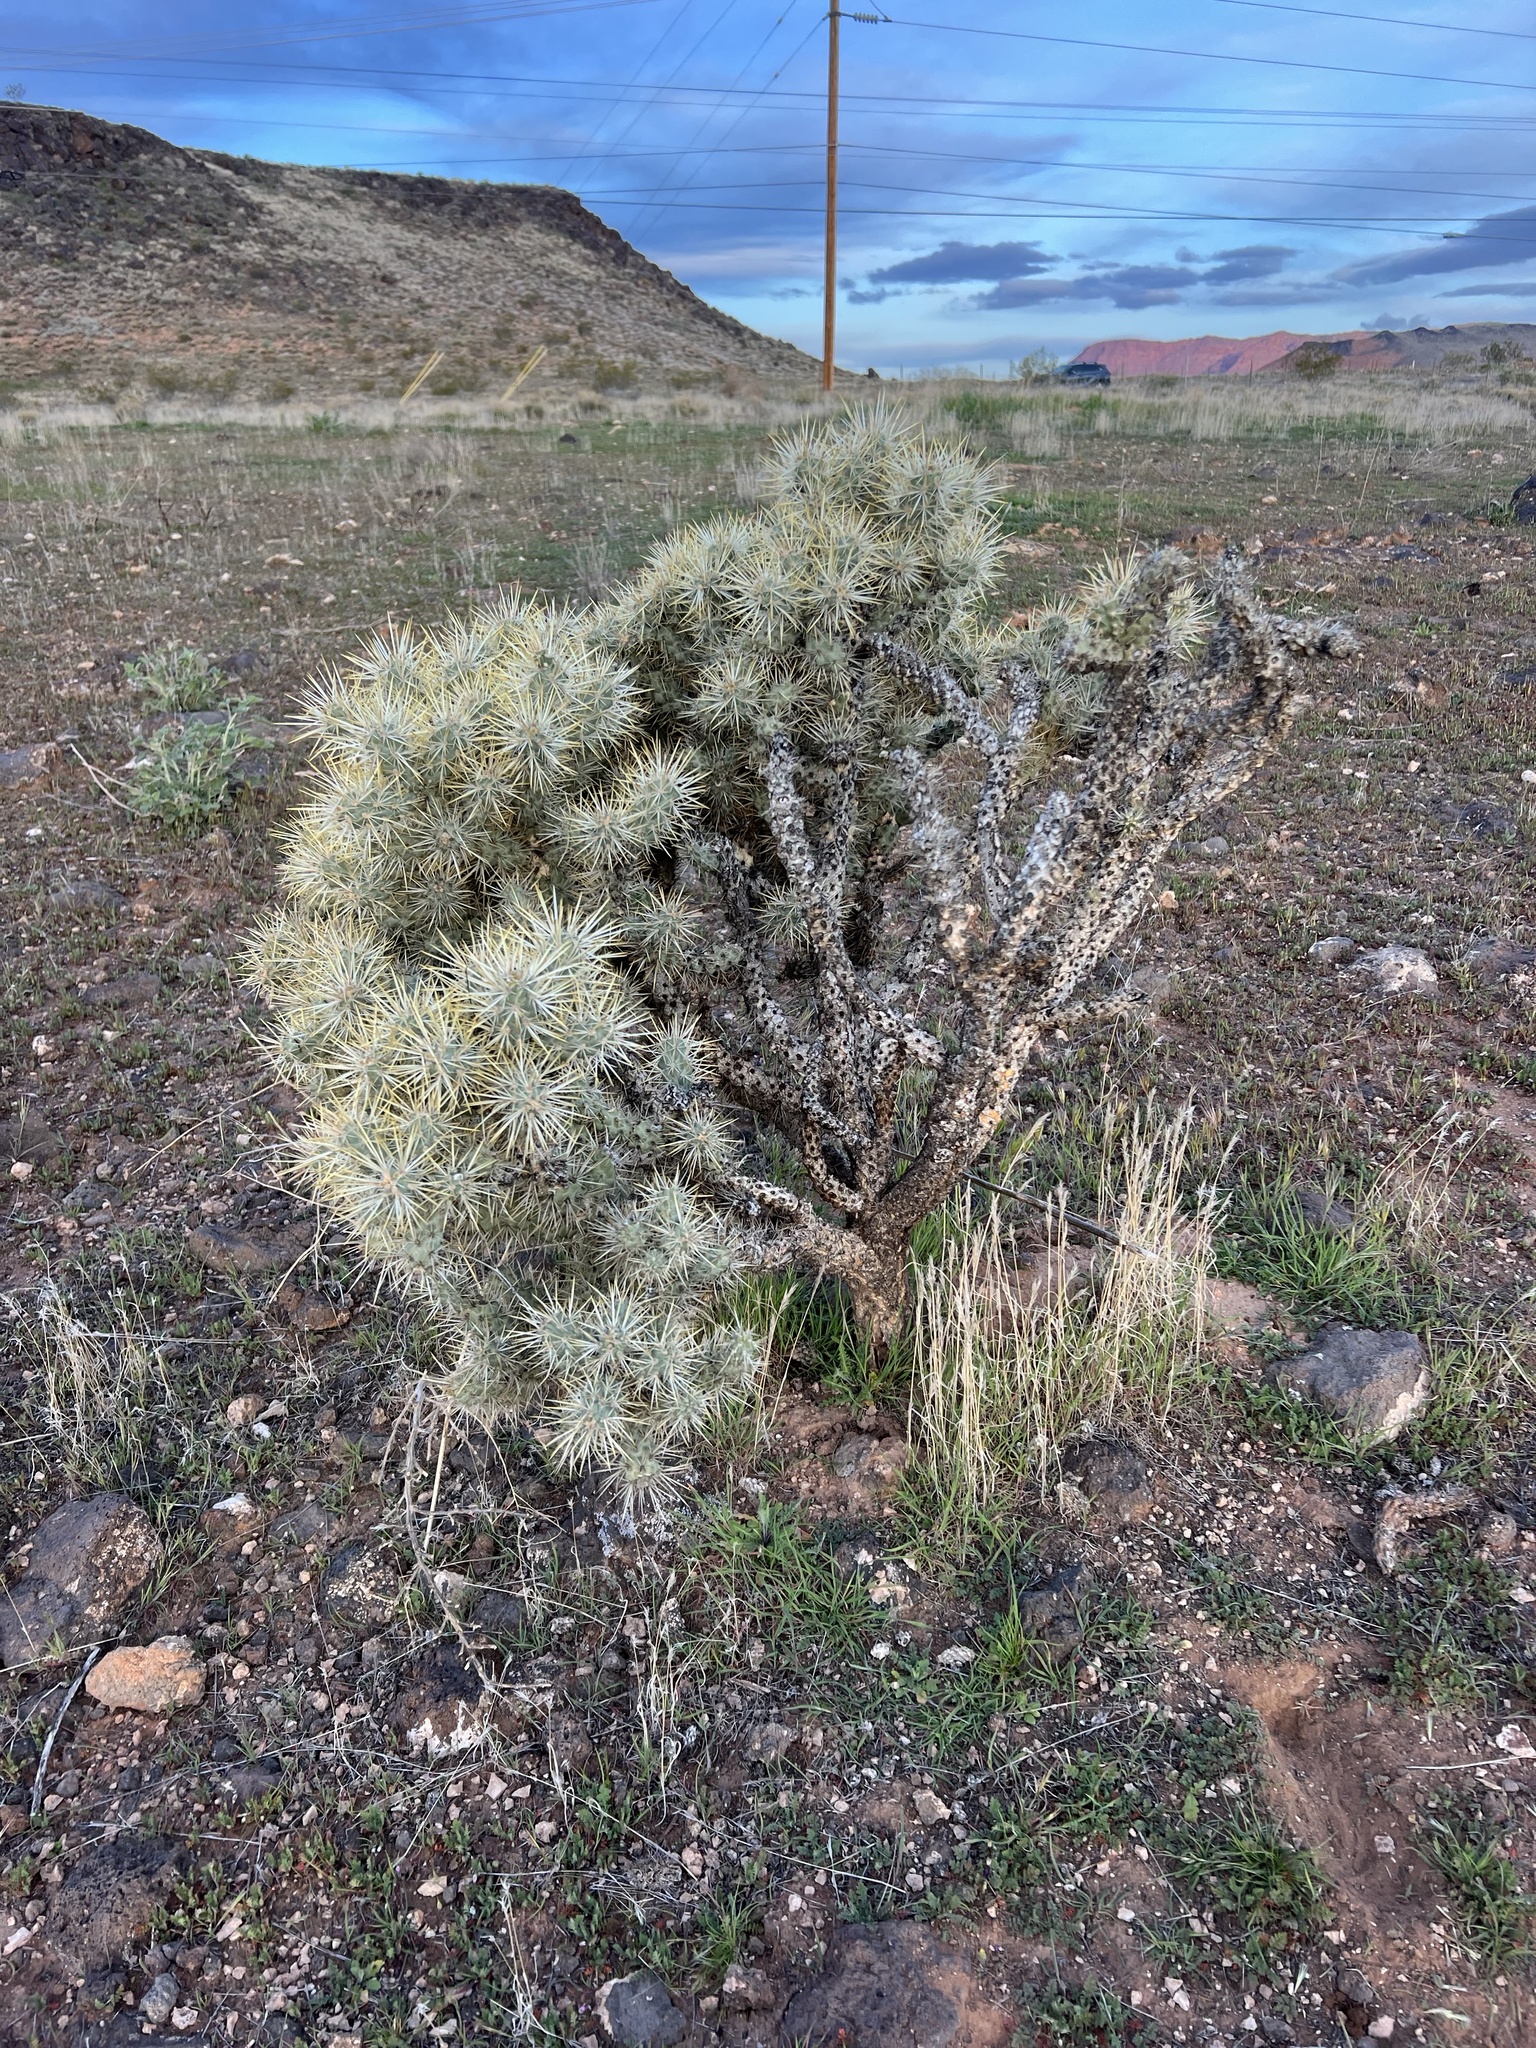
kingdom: Plantae
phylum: Tracheophyta
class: Magnoliopsida
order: Caryophyllales
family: Cactaceae
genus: Cylindropuntia
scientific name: Cylindropuntia echinocarpa
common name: Ground cholla
